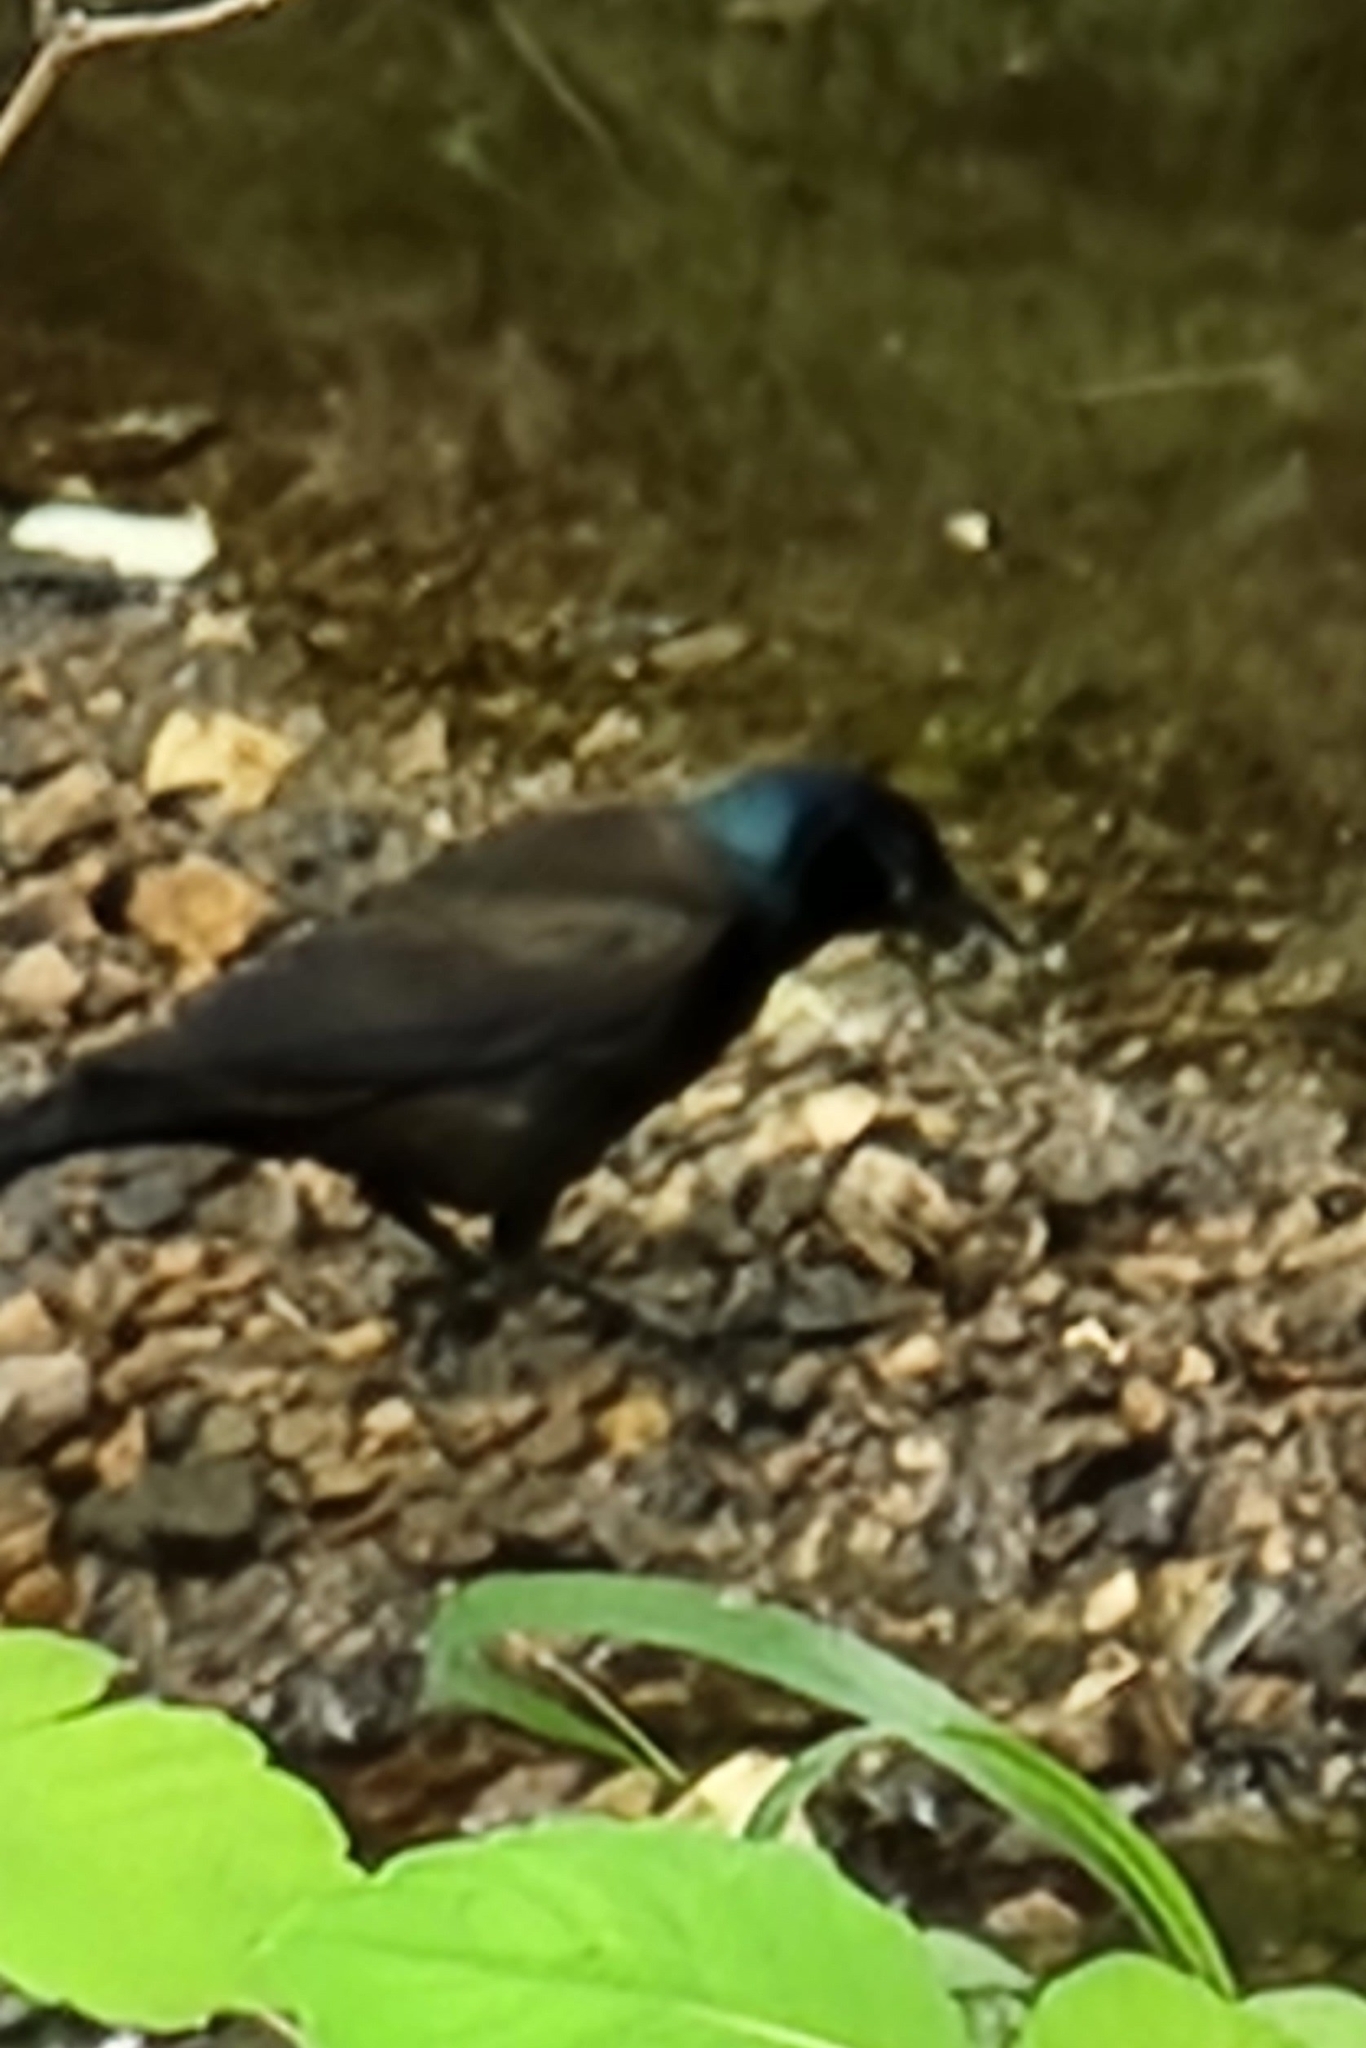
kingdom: Animalia
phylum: Chordata
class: Aves
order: Passeriformes
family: Icteridae
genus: Quiscalus
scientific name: Quiscalus quiscula
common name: Common grackle
